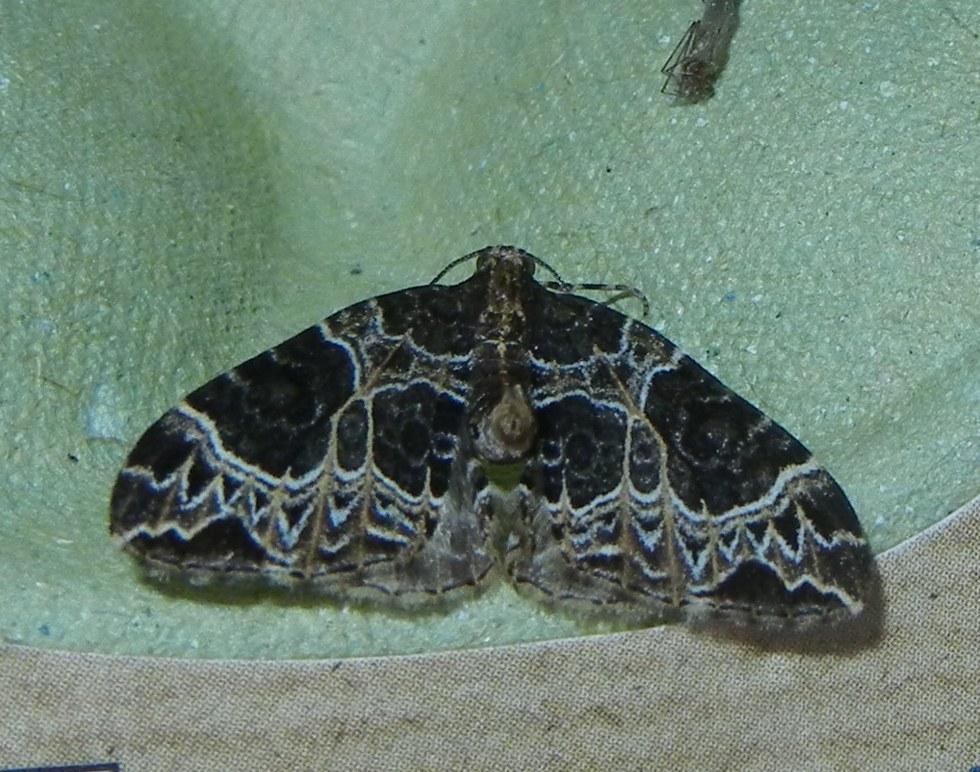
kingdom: Animalia
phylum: Arthropoda
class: Insecta
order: Lepidoptera
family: Geometridae
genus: Ecliptopera
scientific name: Ecliptopera silaceata
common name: Small phoenix
